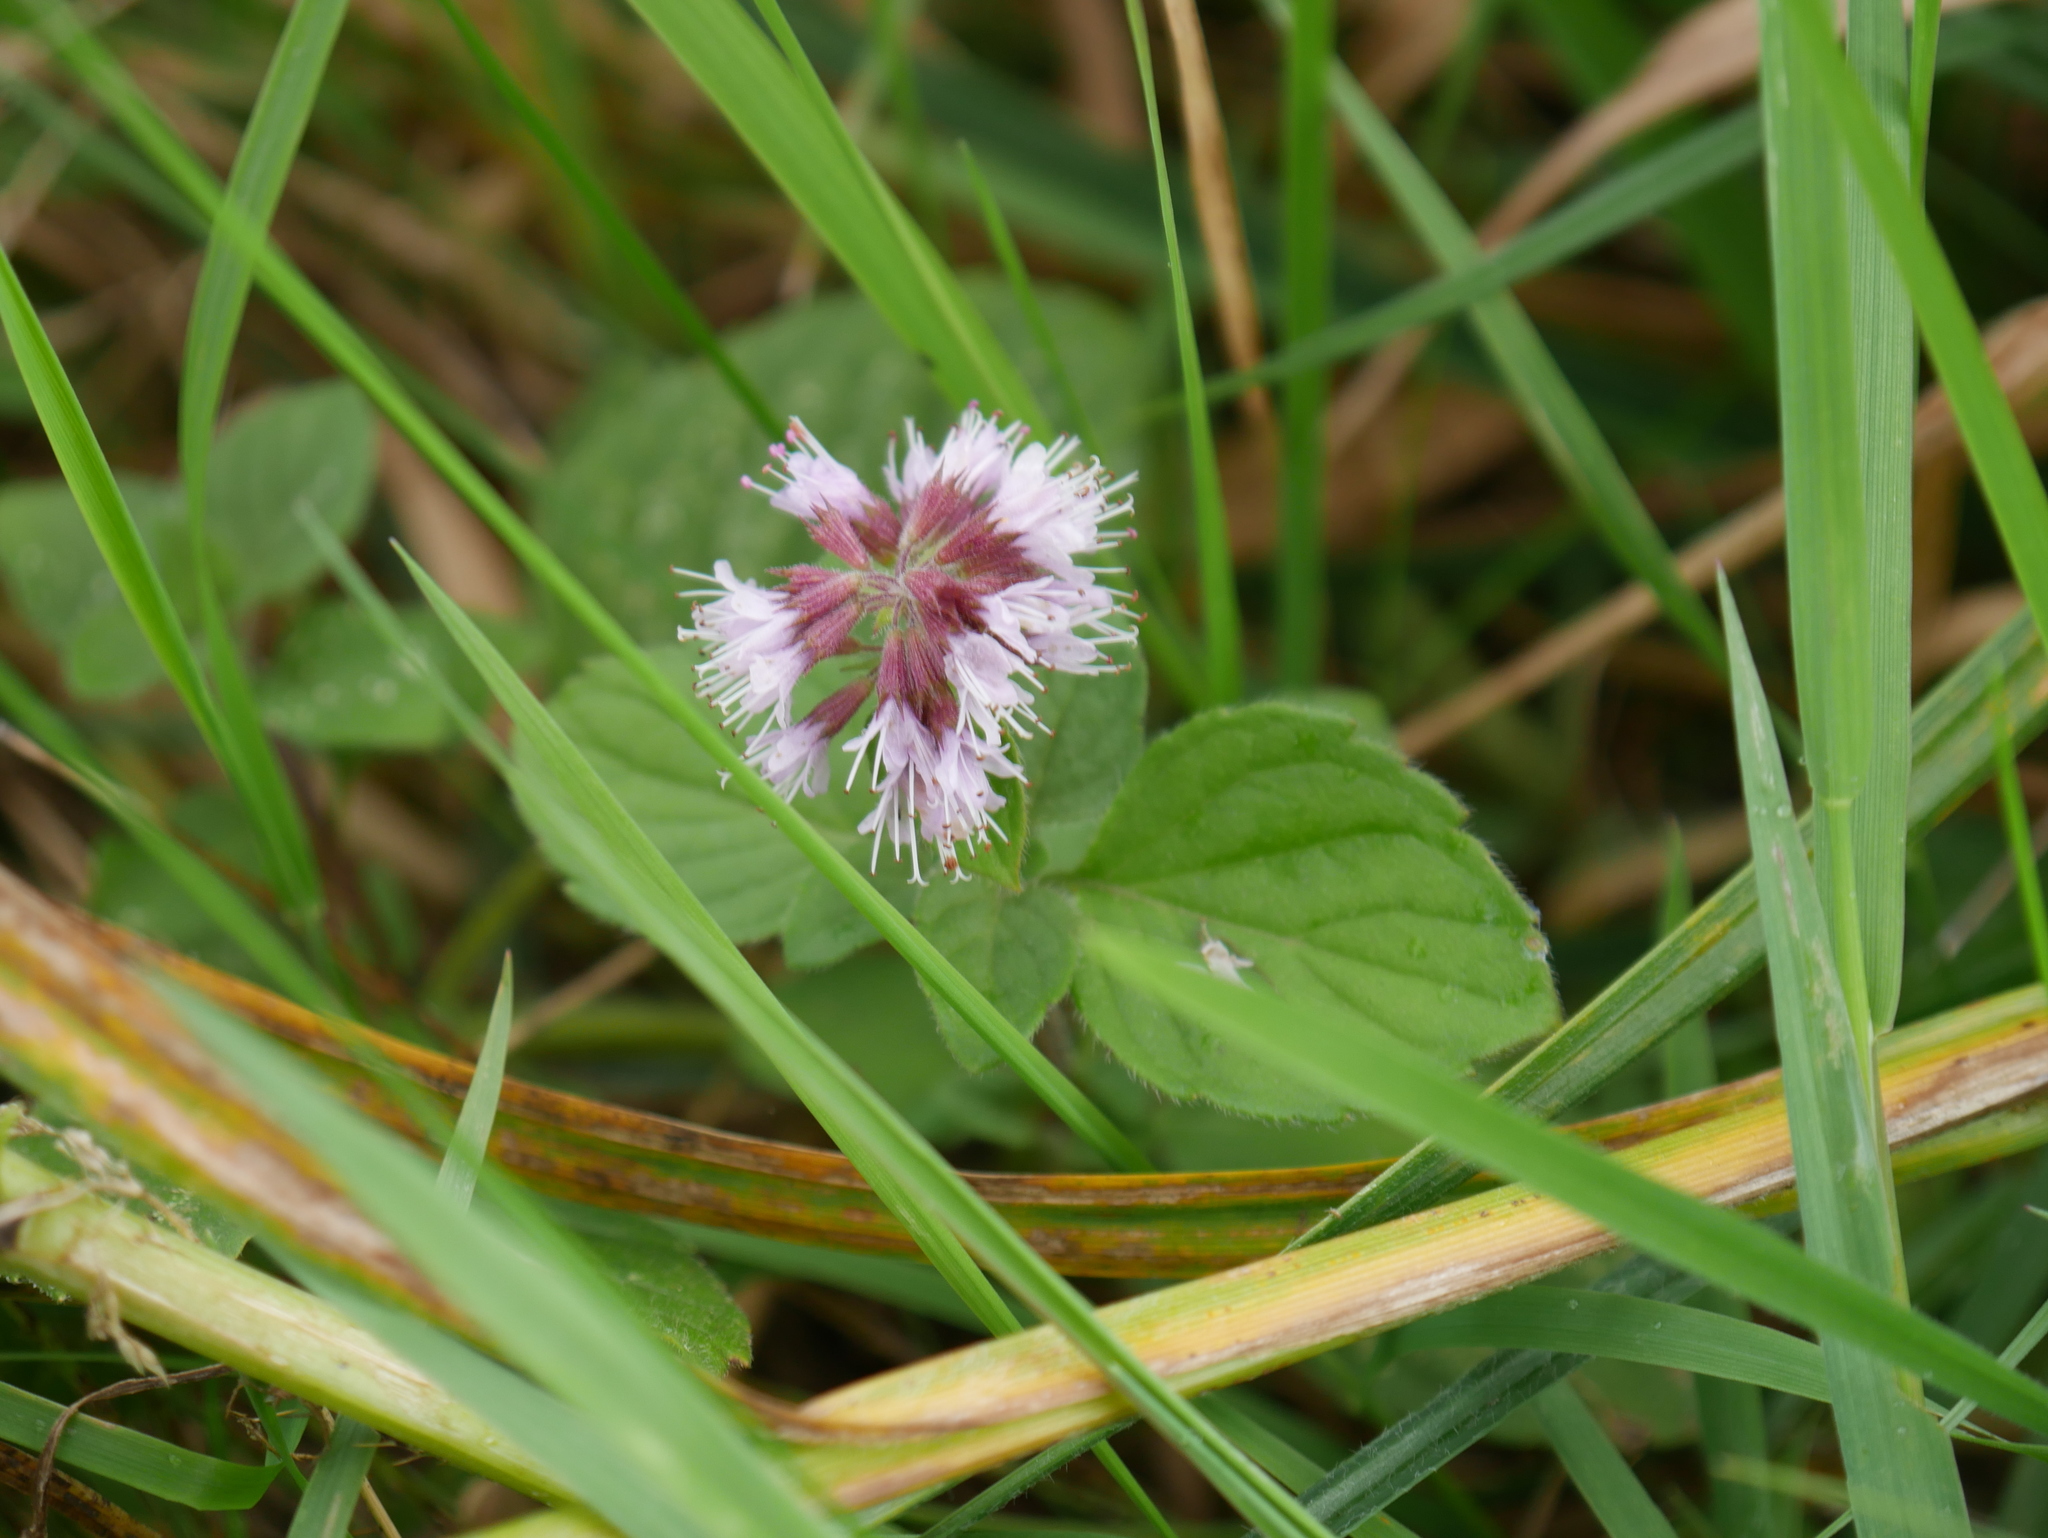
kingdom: Plantae
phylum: Tracheophyta
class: Magnoliopsida
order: Lamiales
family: Lamiaceae
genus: Mentha
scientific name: Mentha aquatica
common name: Water mint
